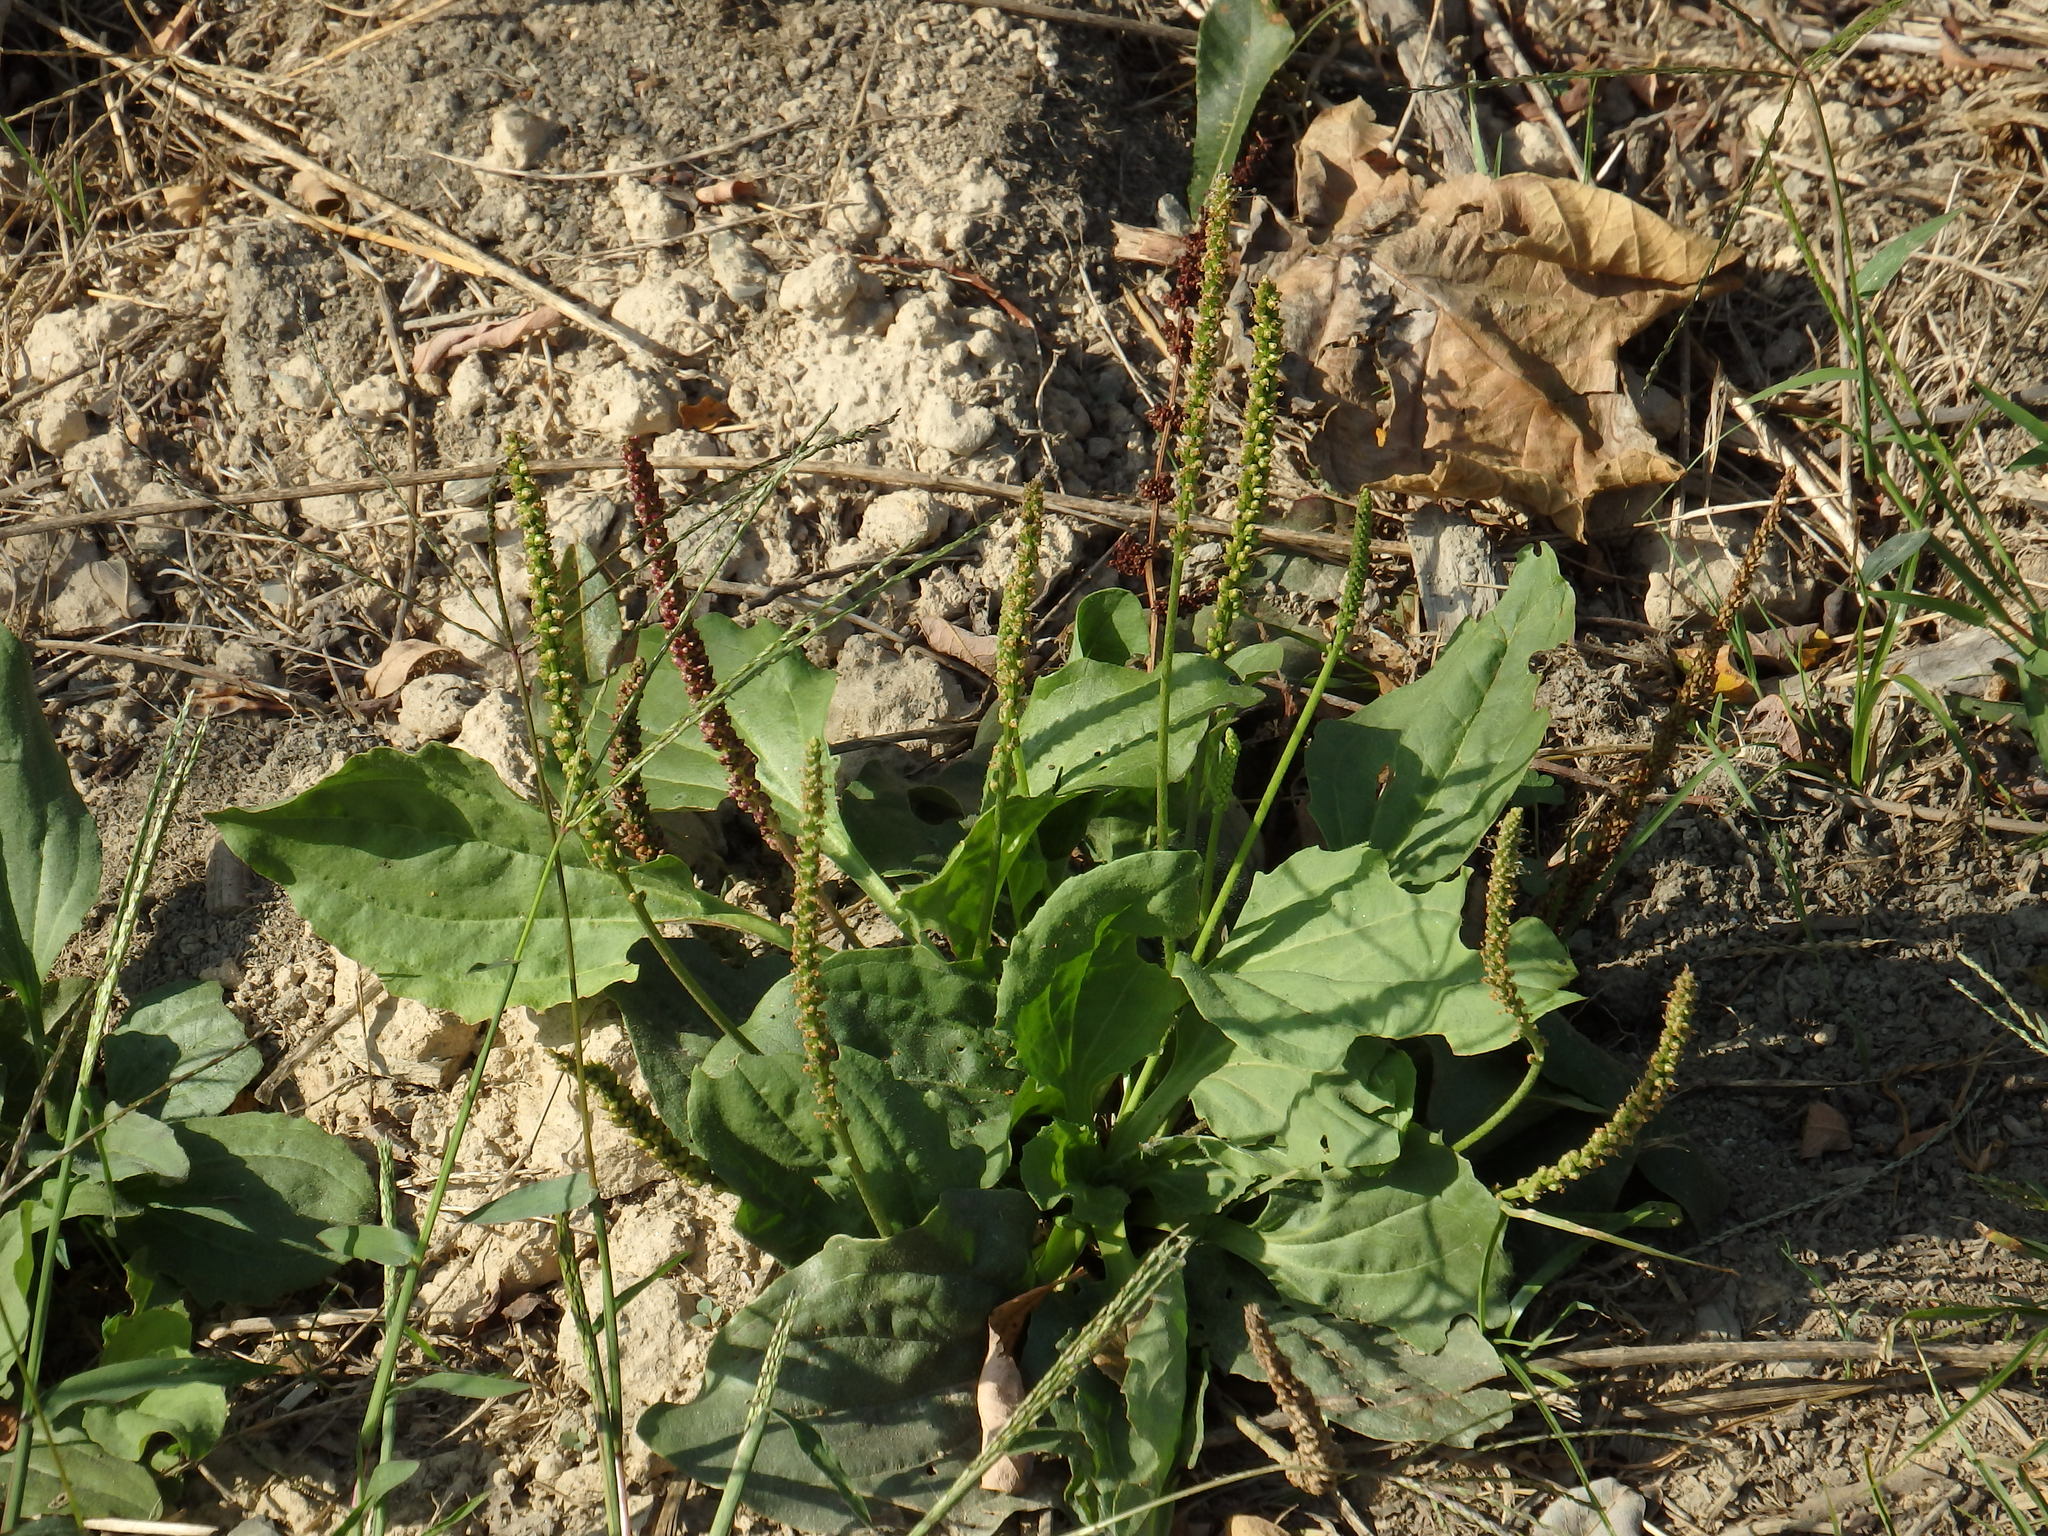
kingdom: Plantae
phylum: Tracheophyta
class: Magnoliopsida
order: Lamiales
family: Plantaginaceae
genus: Plantago
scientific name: Plantago major
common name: Common plantain
